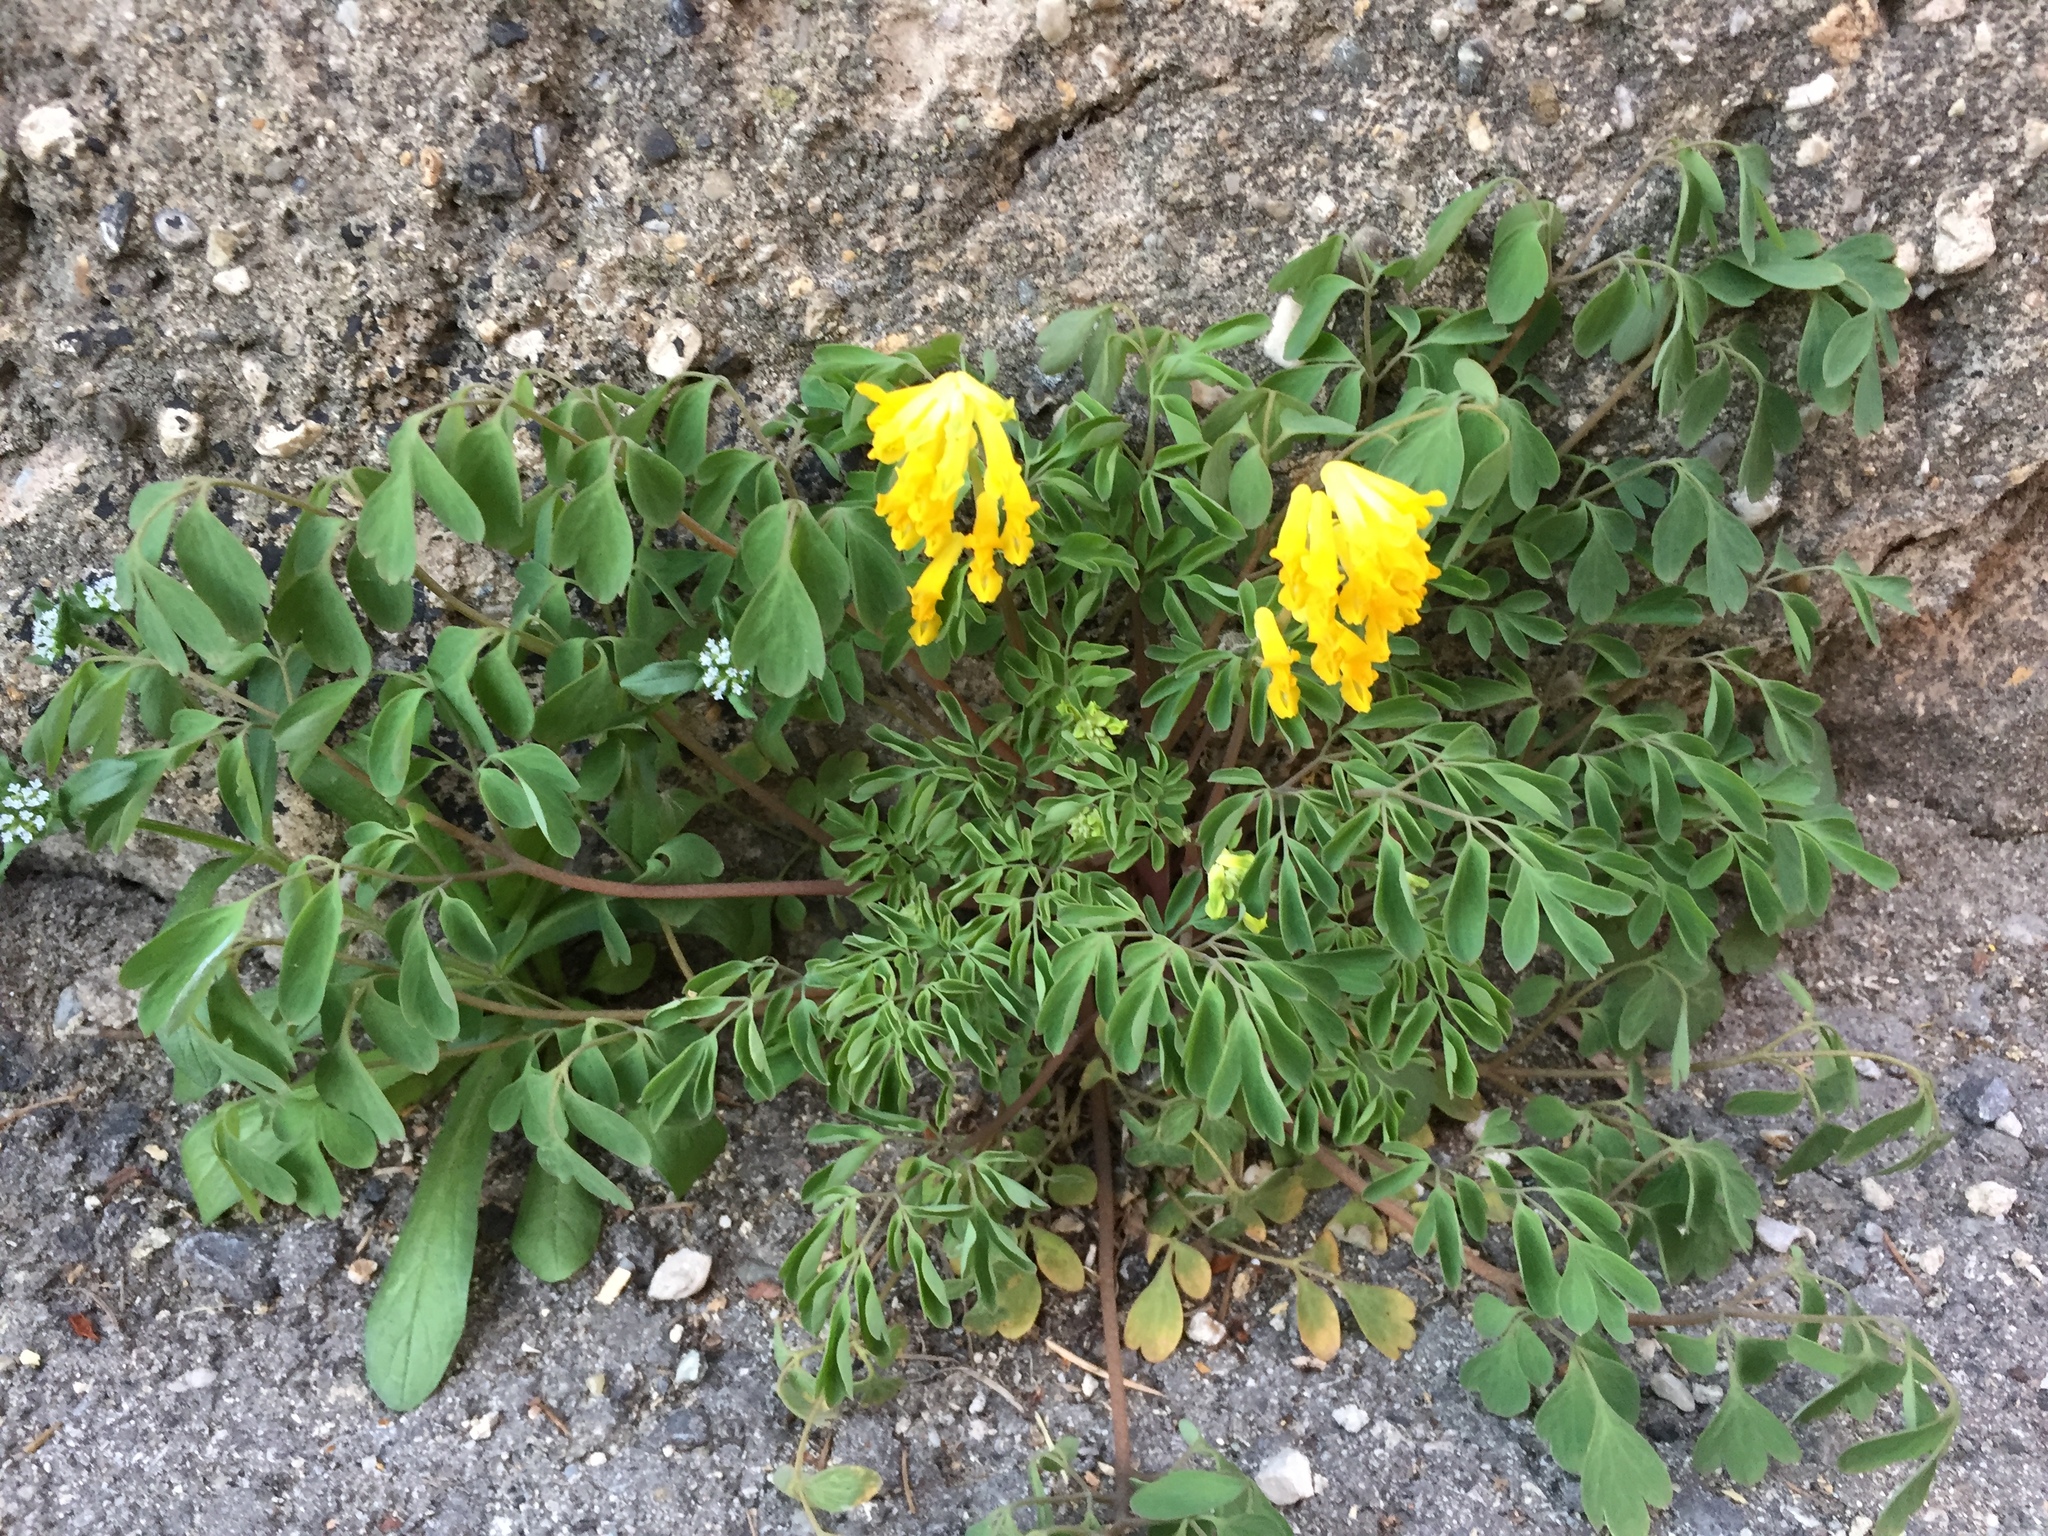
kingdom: Plantae
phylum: Tracheophyta
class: Magnoliopsida
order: Ranunculales
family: Papaveraceae
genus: Pseudofumaria
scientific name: Pseudofumaria lutea
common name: Yellow corydalis
